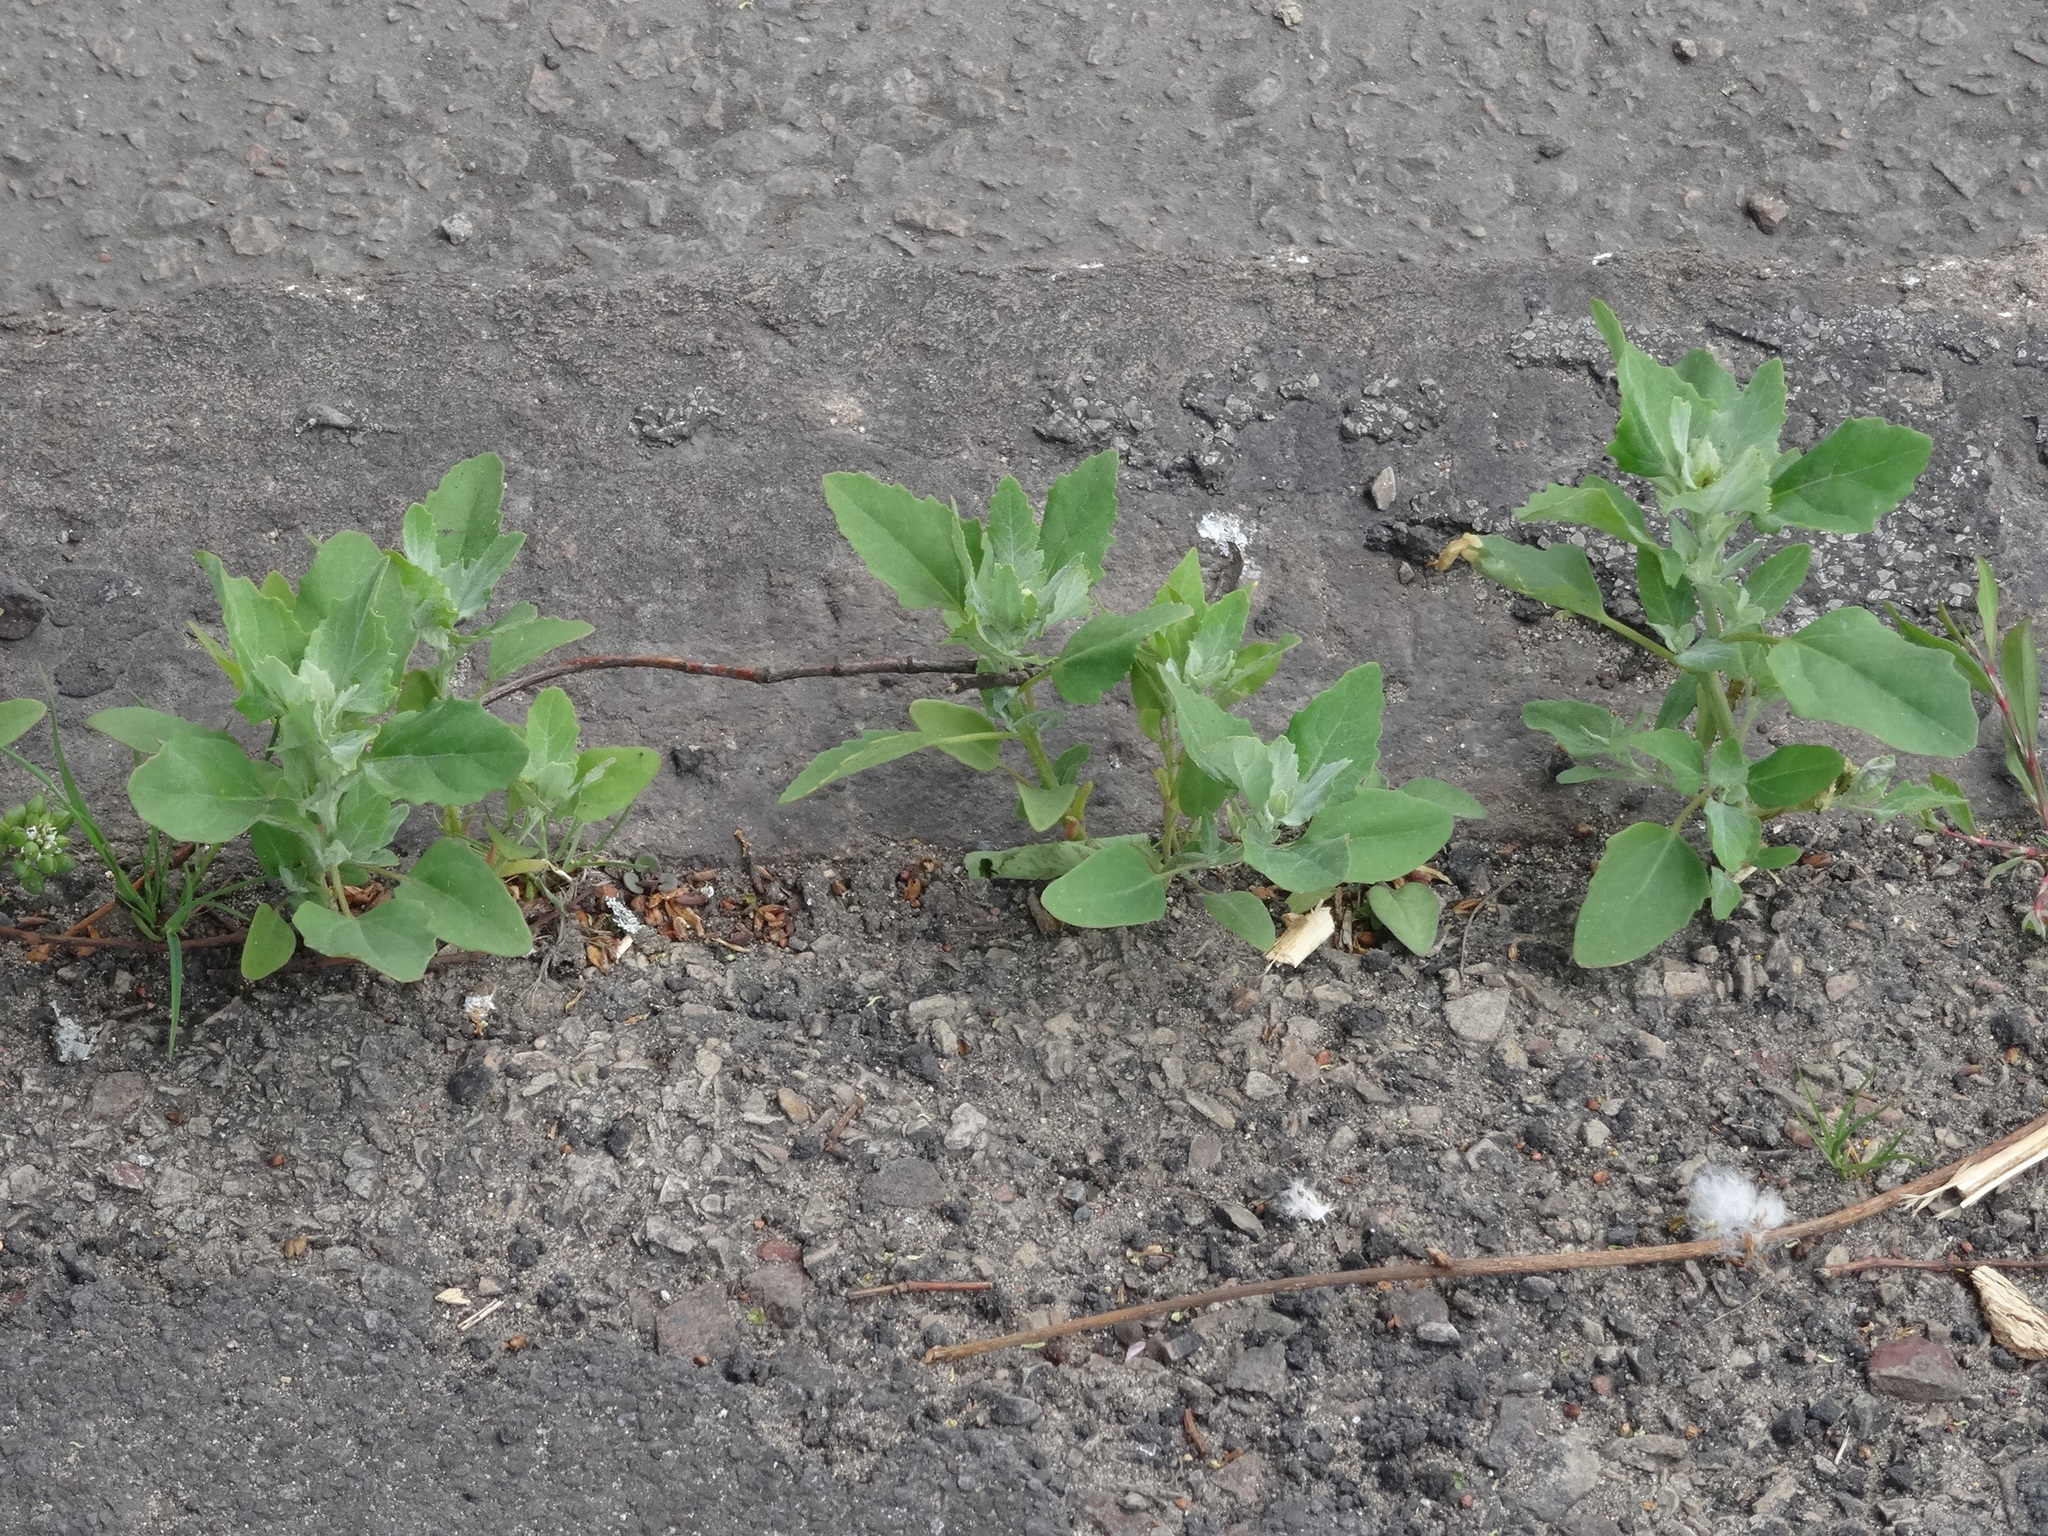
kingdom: Plantae
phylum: Tracheophyta
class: Magnoliopsida
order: Caryophyllales
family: Amaranthaceae
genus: Chenopodium
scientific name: Chenopodium album
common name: Fat-hen
